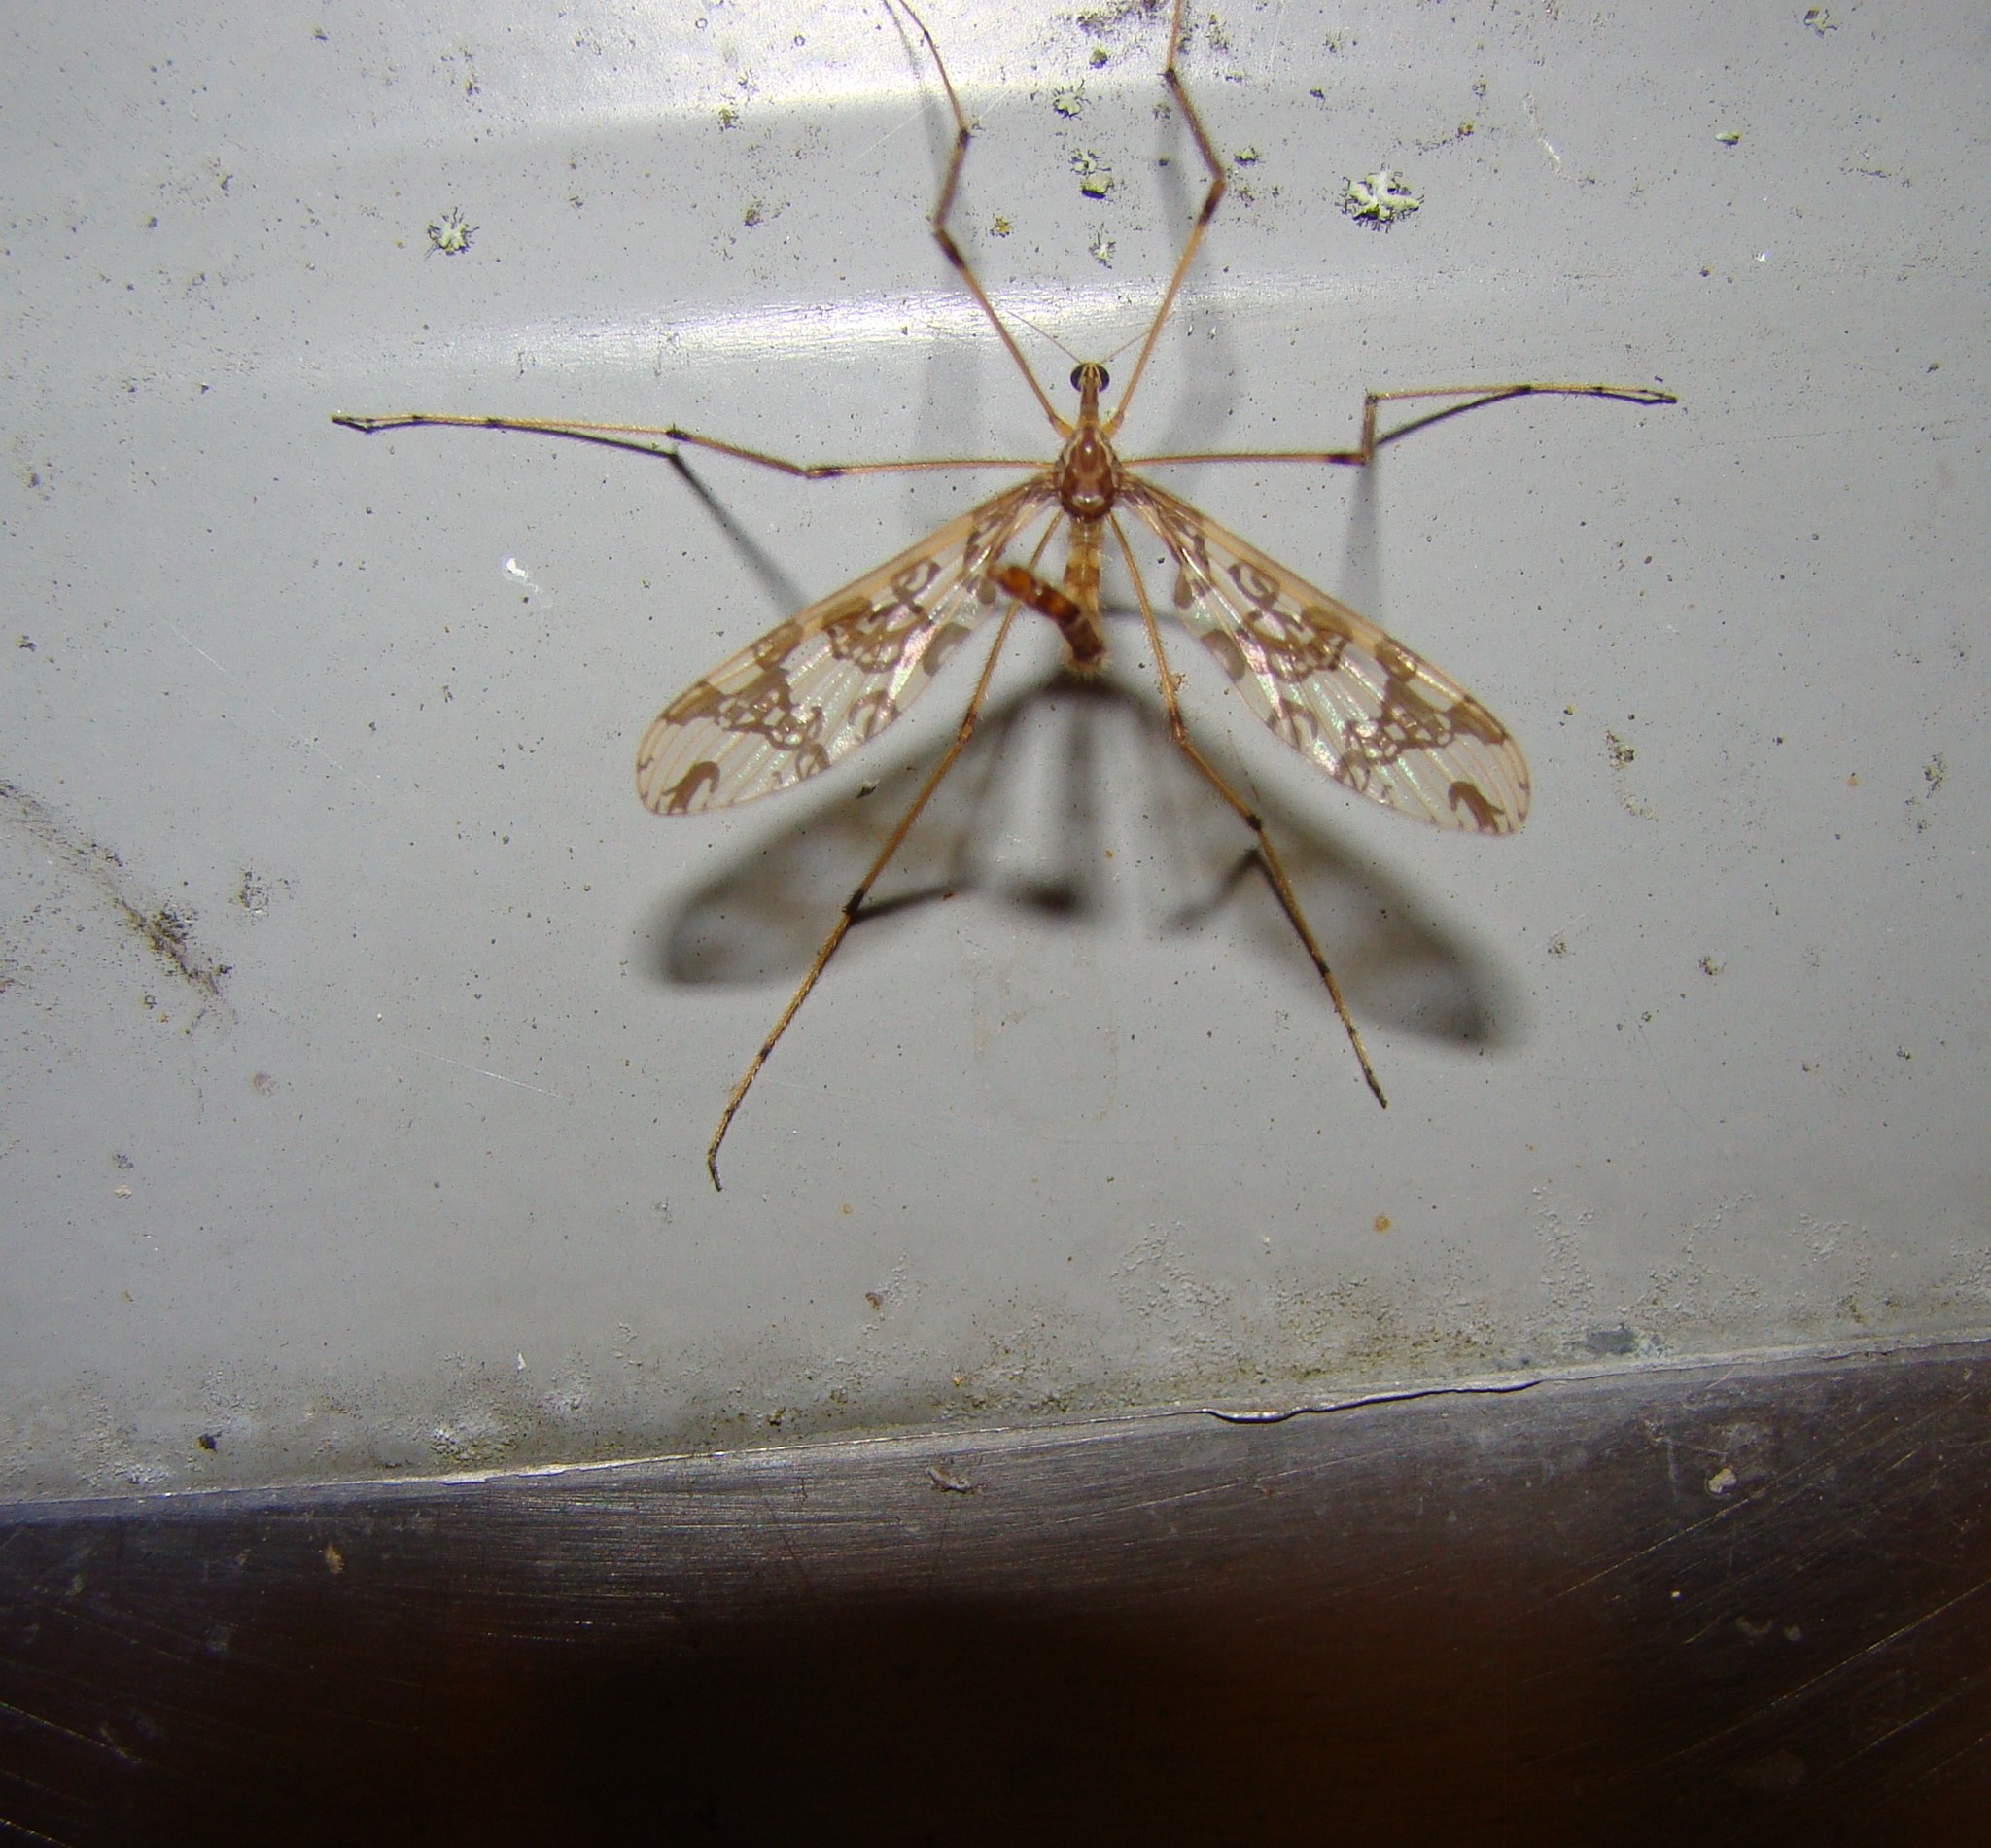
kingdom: Animalia
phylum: Arthropoda
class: Insecta
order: Diptera
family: Tanyderidae
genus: Tanyderus
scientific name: Tanyderus annuliferus
